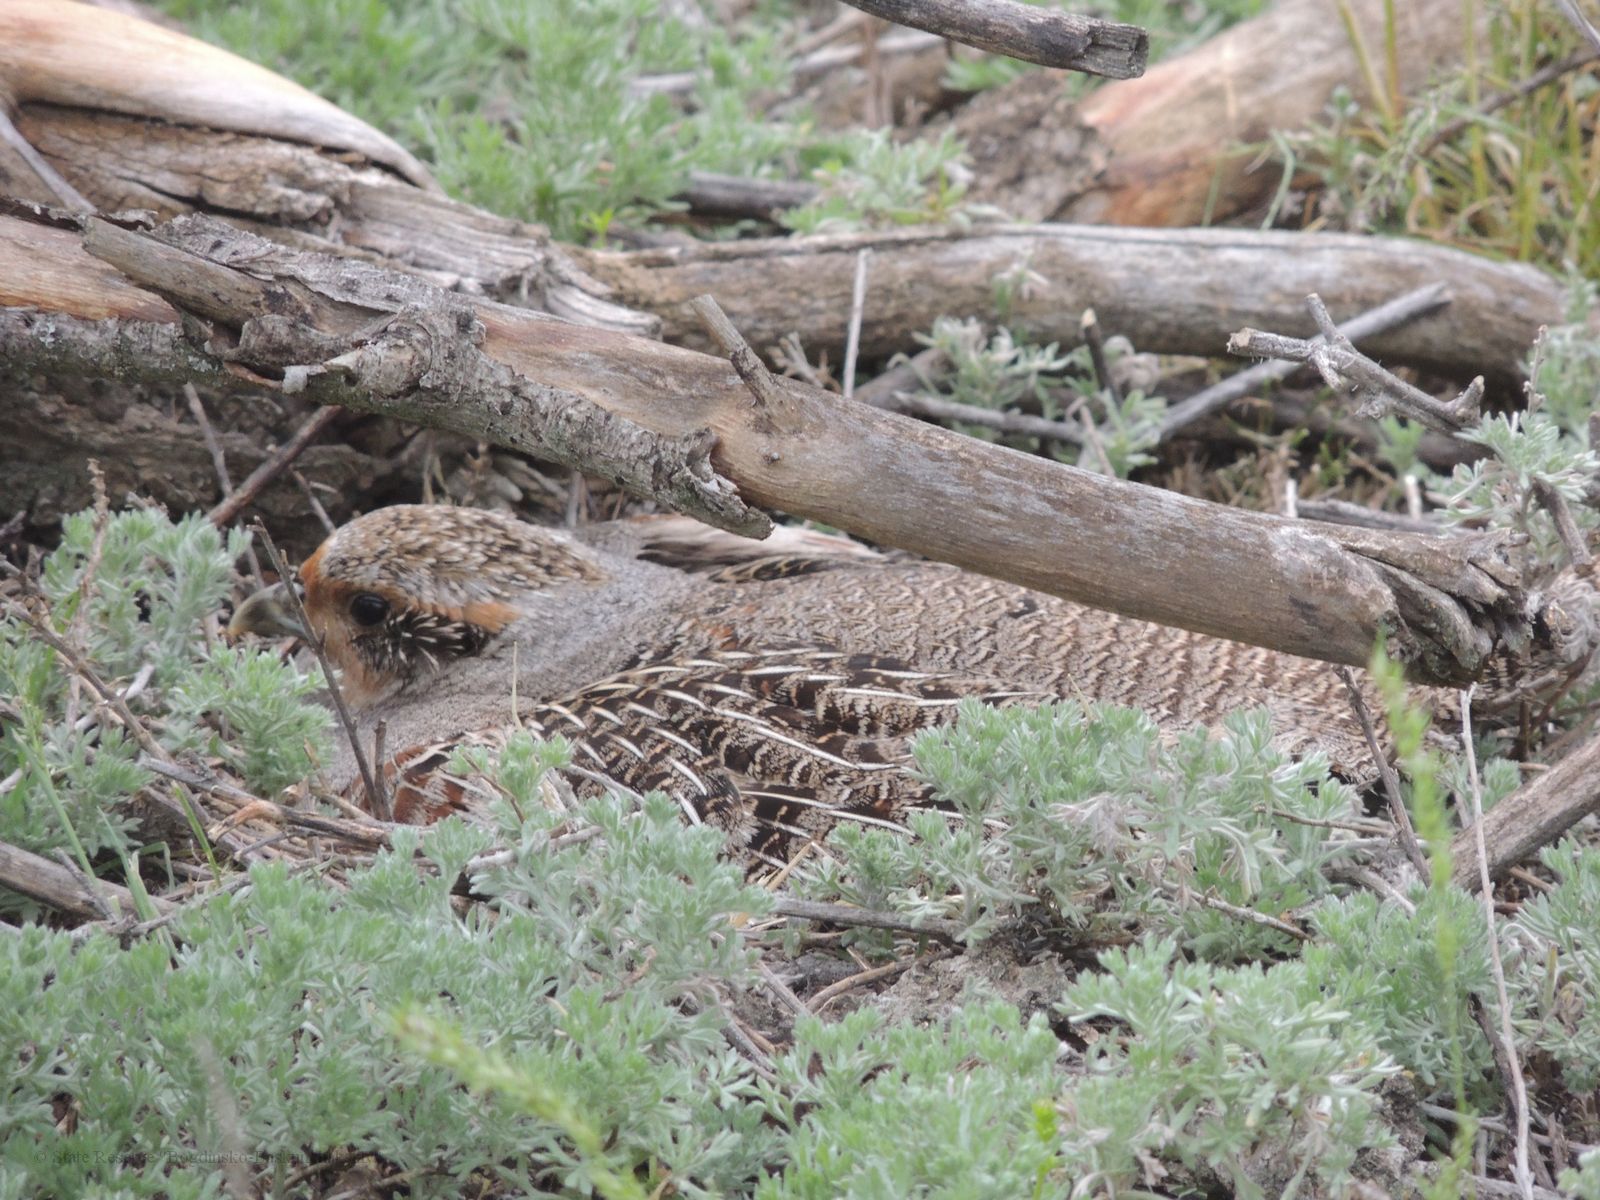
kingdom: Animalia
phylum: Chordata
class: Aves
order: Galliformes
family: Phasianidae
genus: Perdix
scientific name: Perdix perdix
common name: Grey partridge
